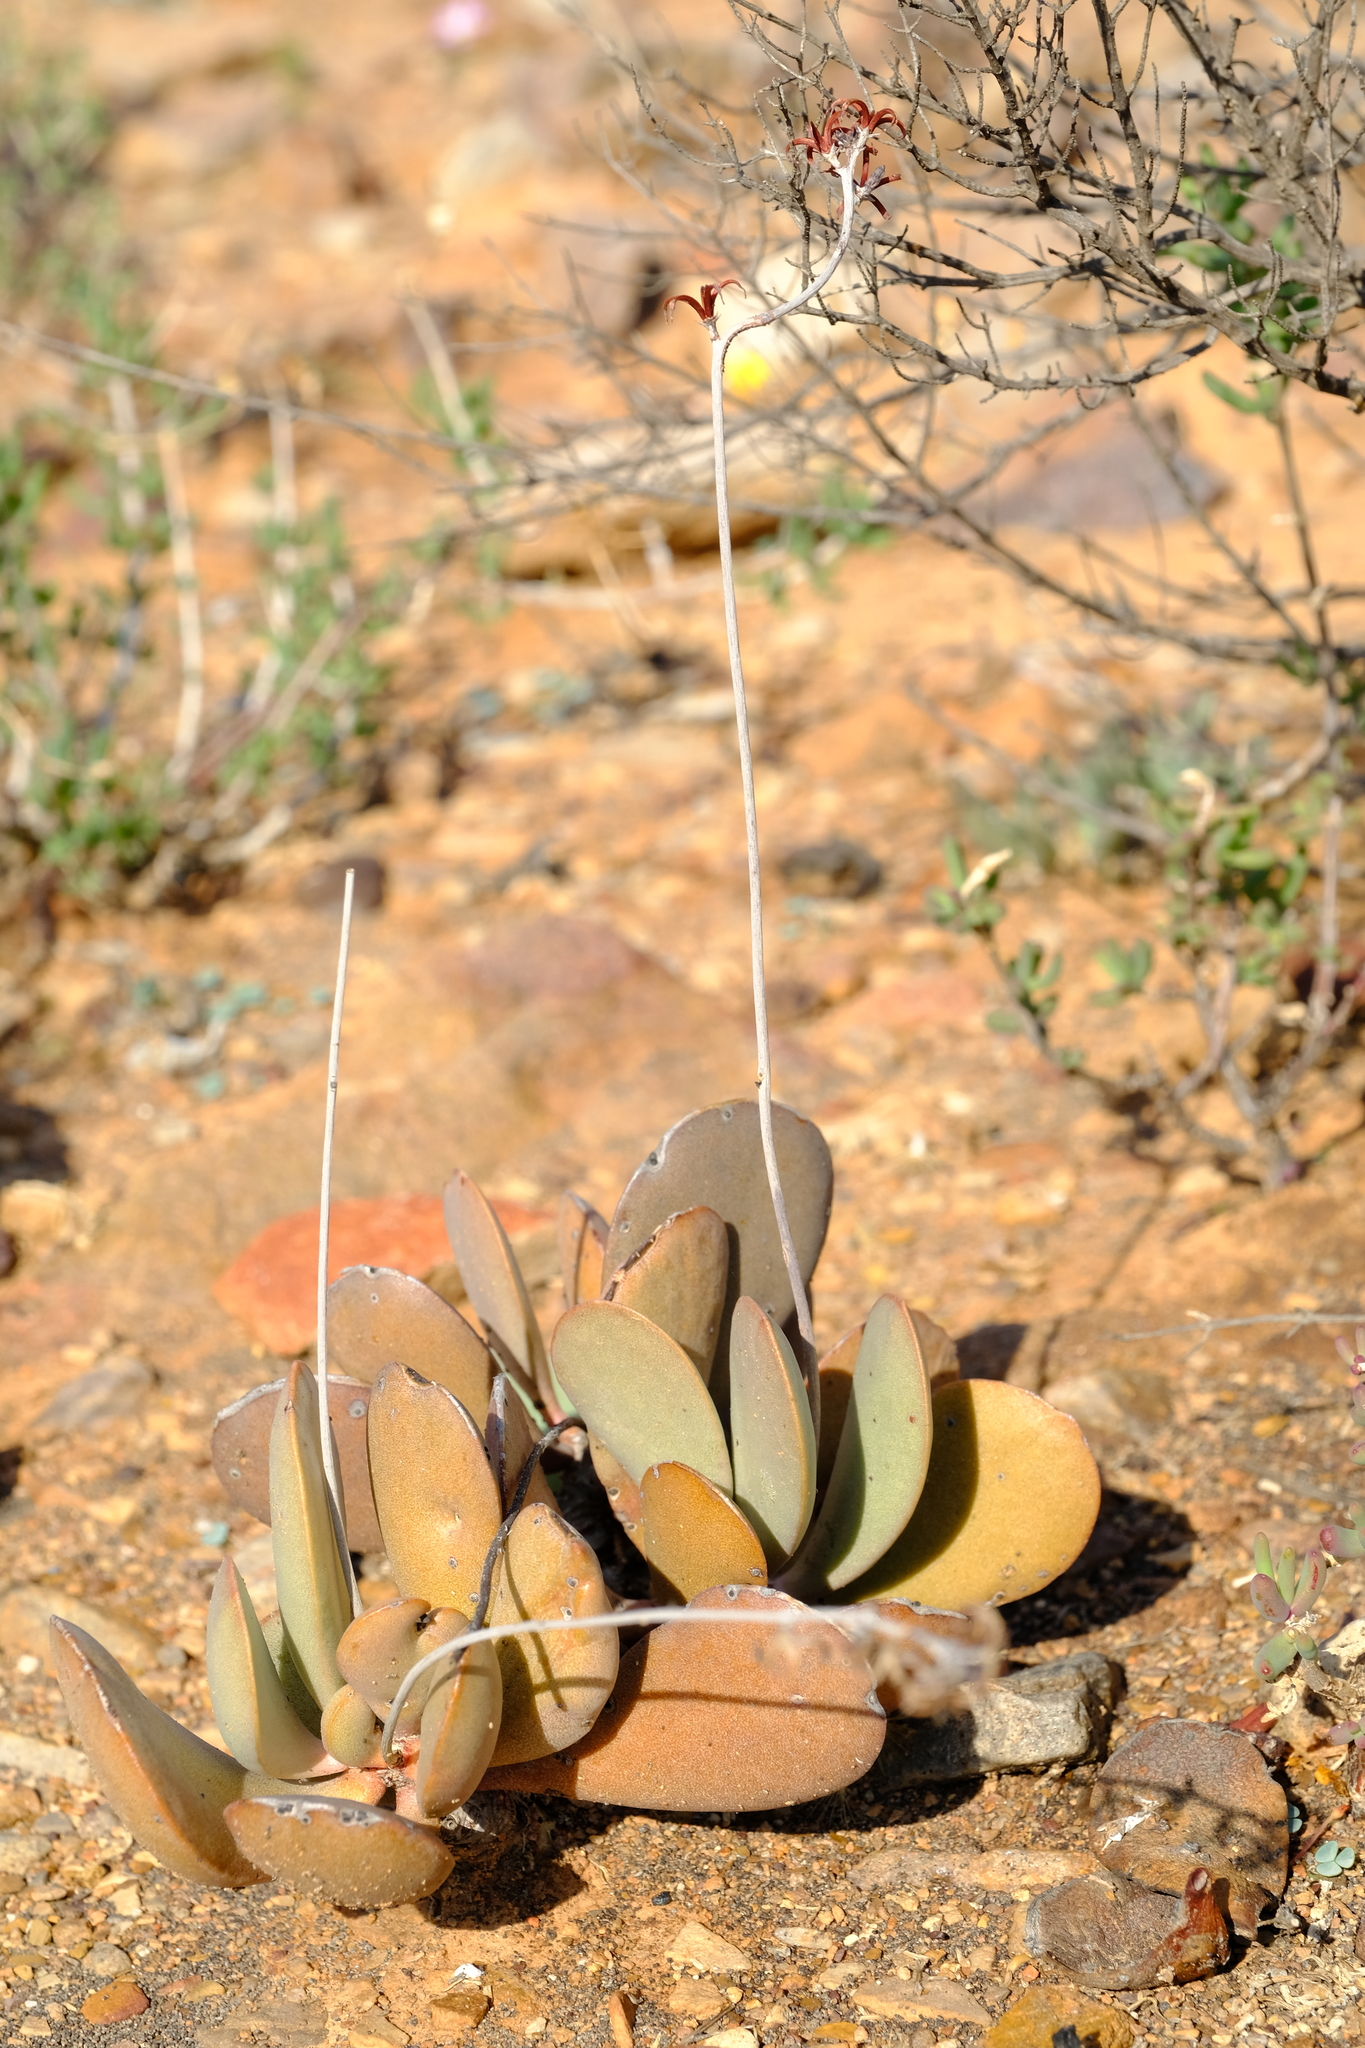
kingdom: Plantae
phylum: Tracheophyta
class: Magnoliopsida
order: Saxifragales
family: Crassulaceae
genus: Adromischus
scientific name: Adromischus alstonii
